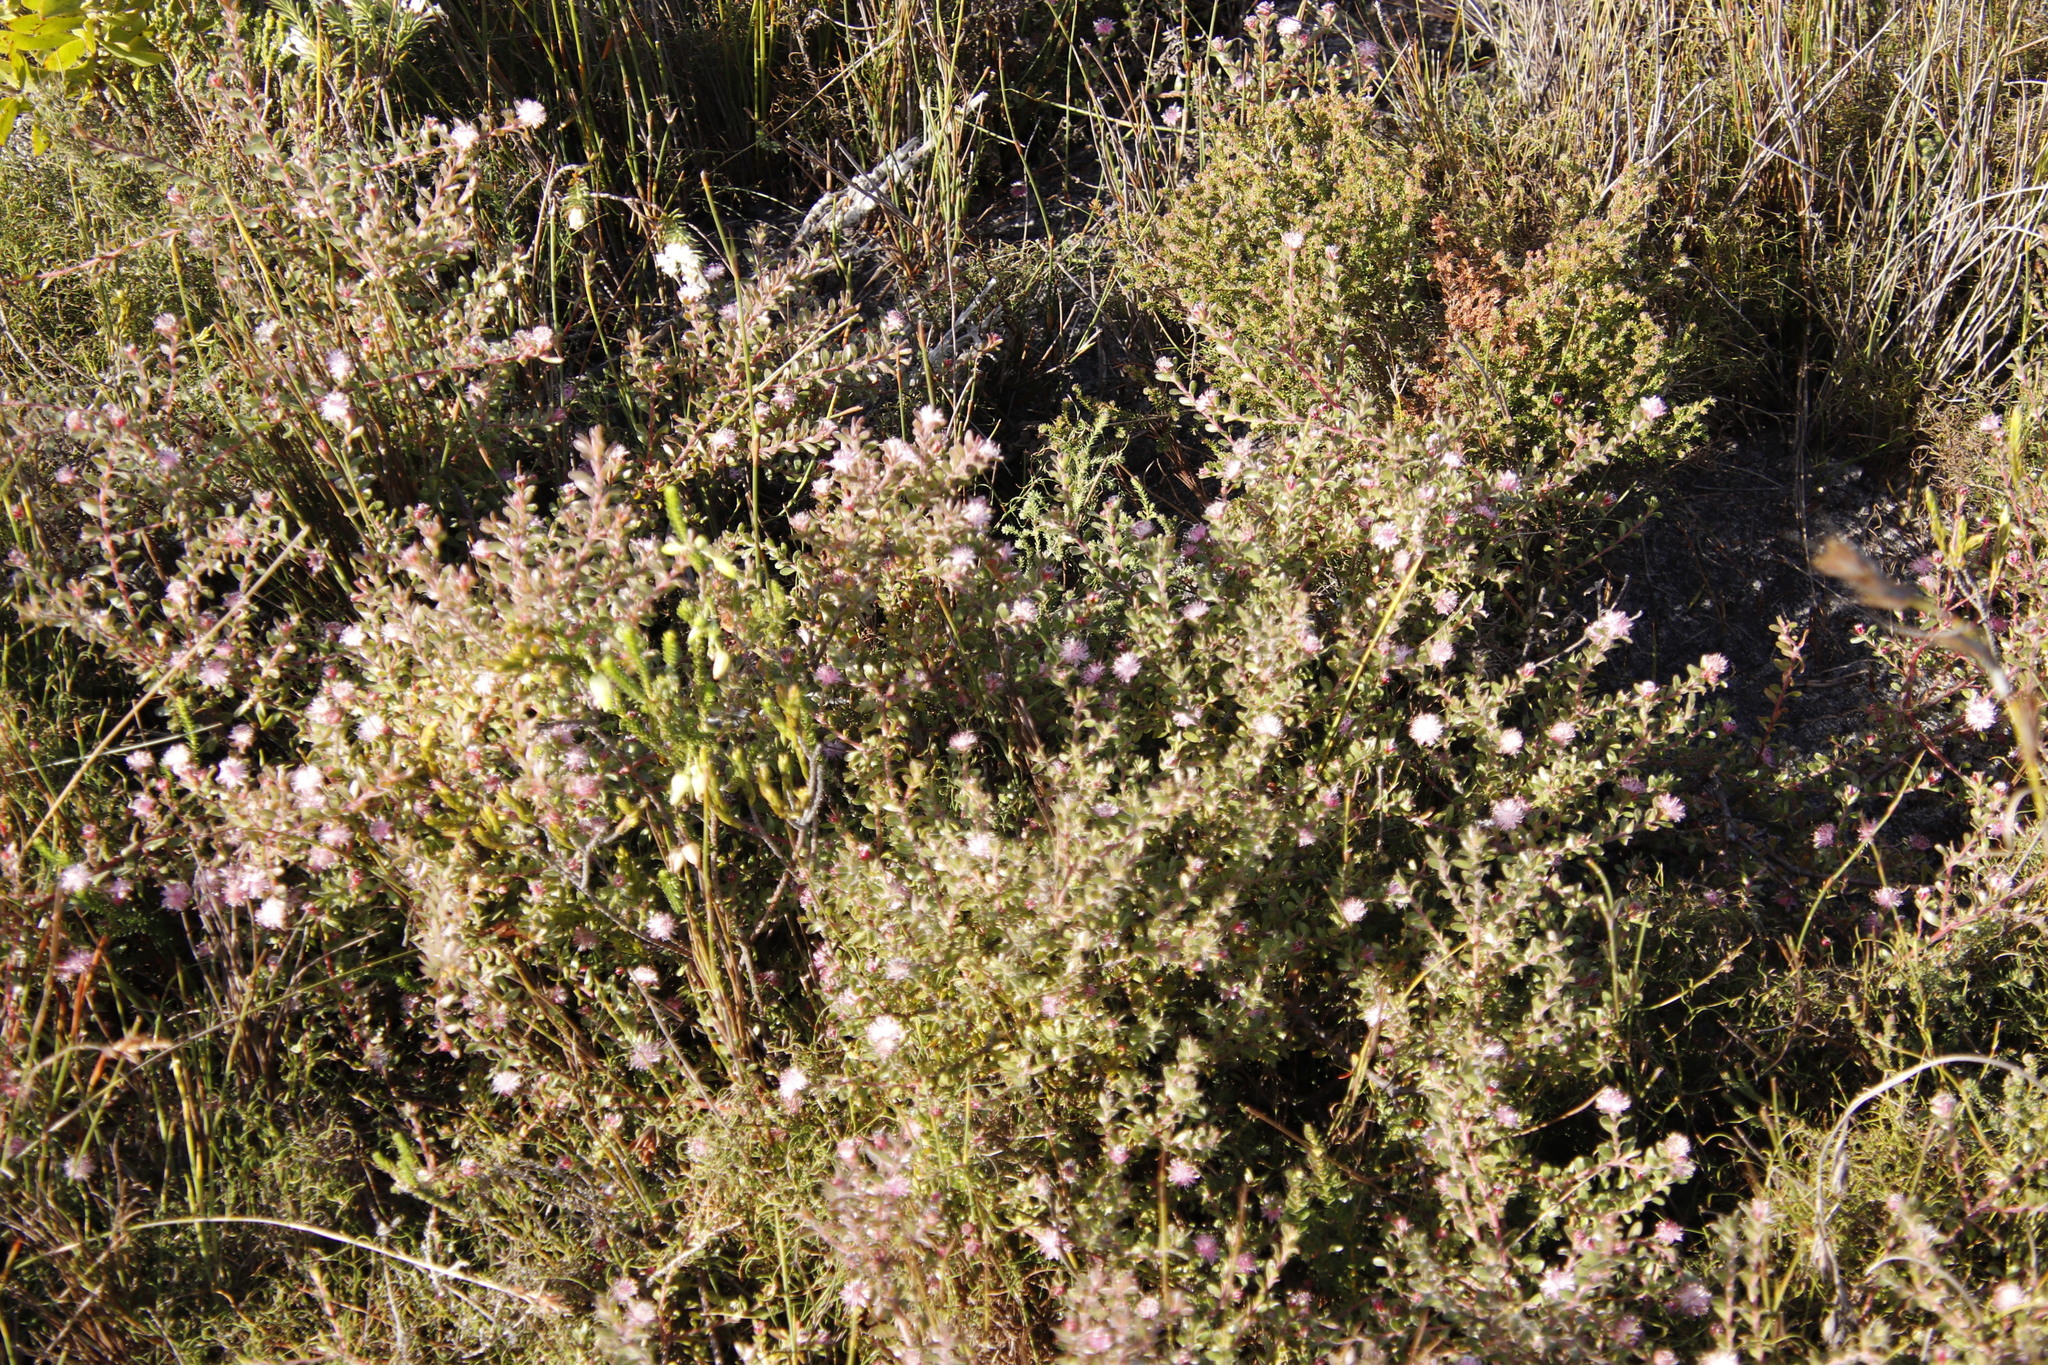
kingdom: Plantae
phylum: Tracheophyta
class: Magnoliopsida
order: Proteales
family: Proteaceae
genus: Diastella
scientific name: Diastella divaricata
